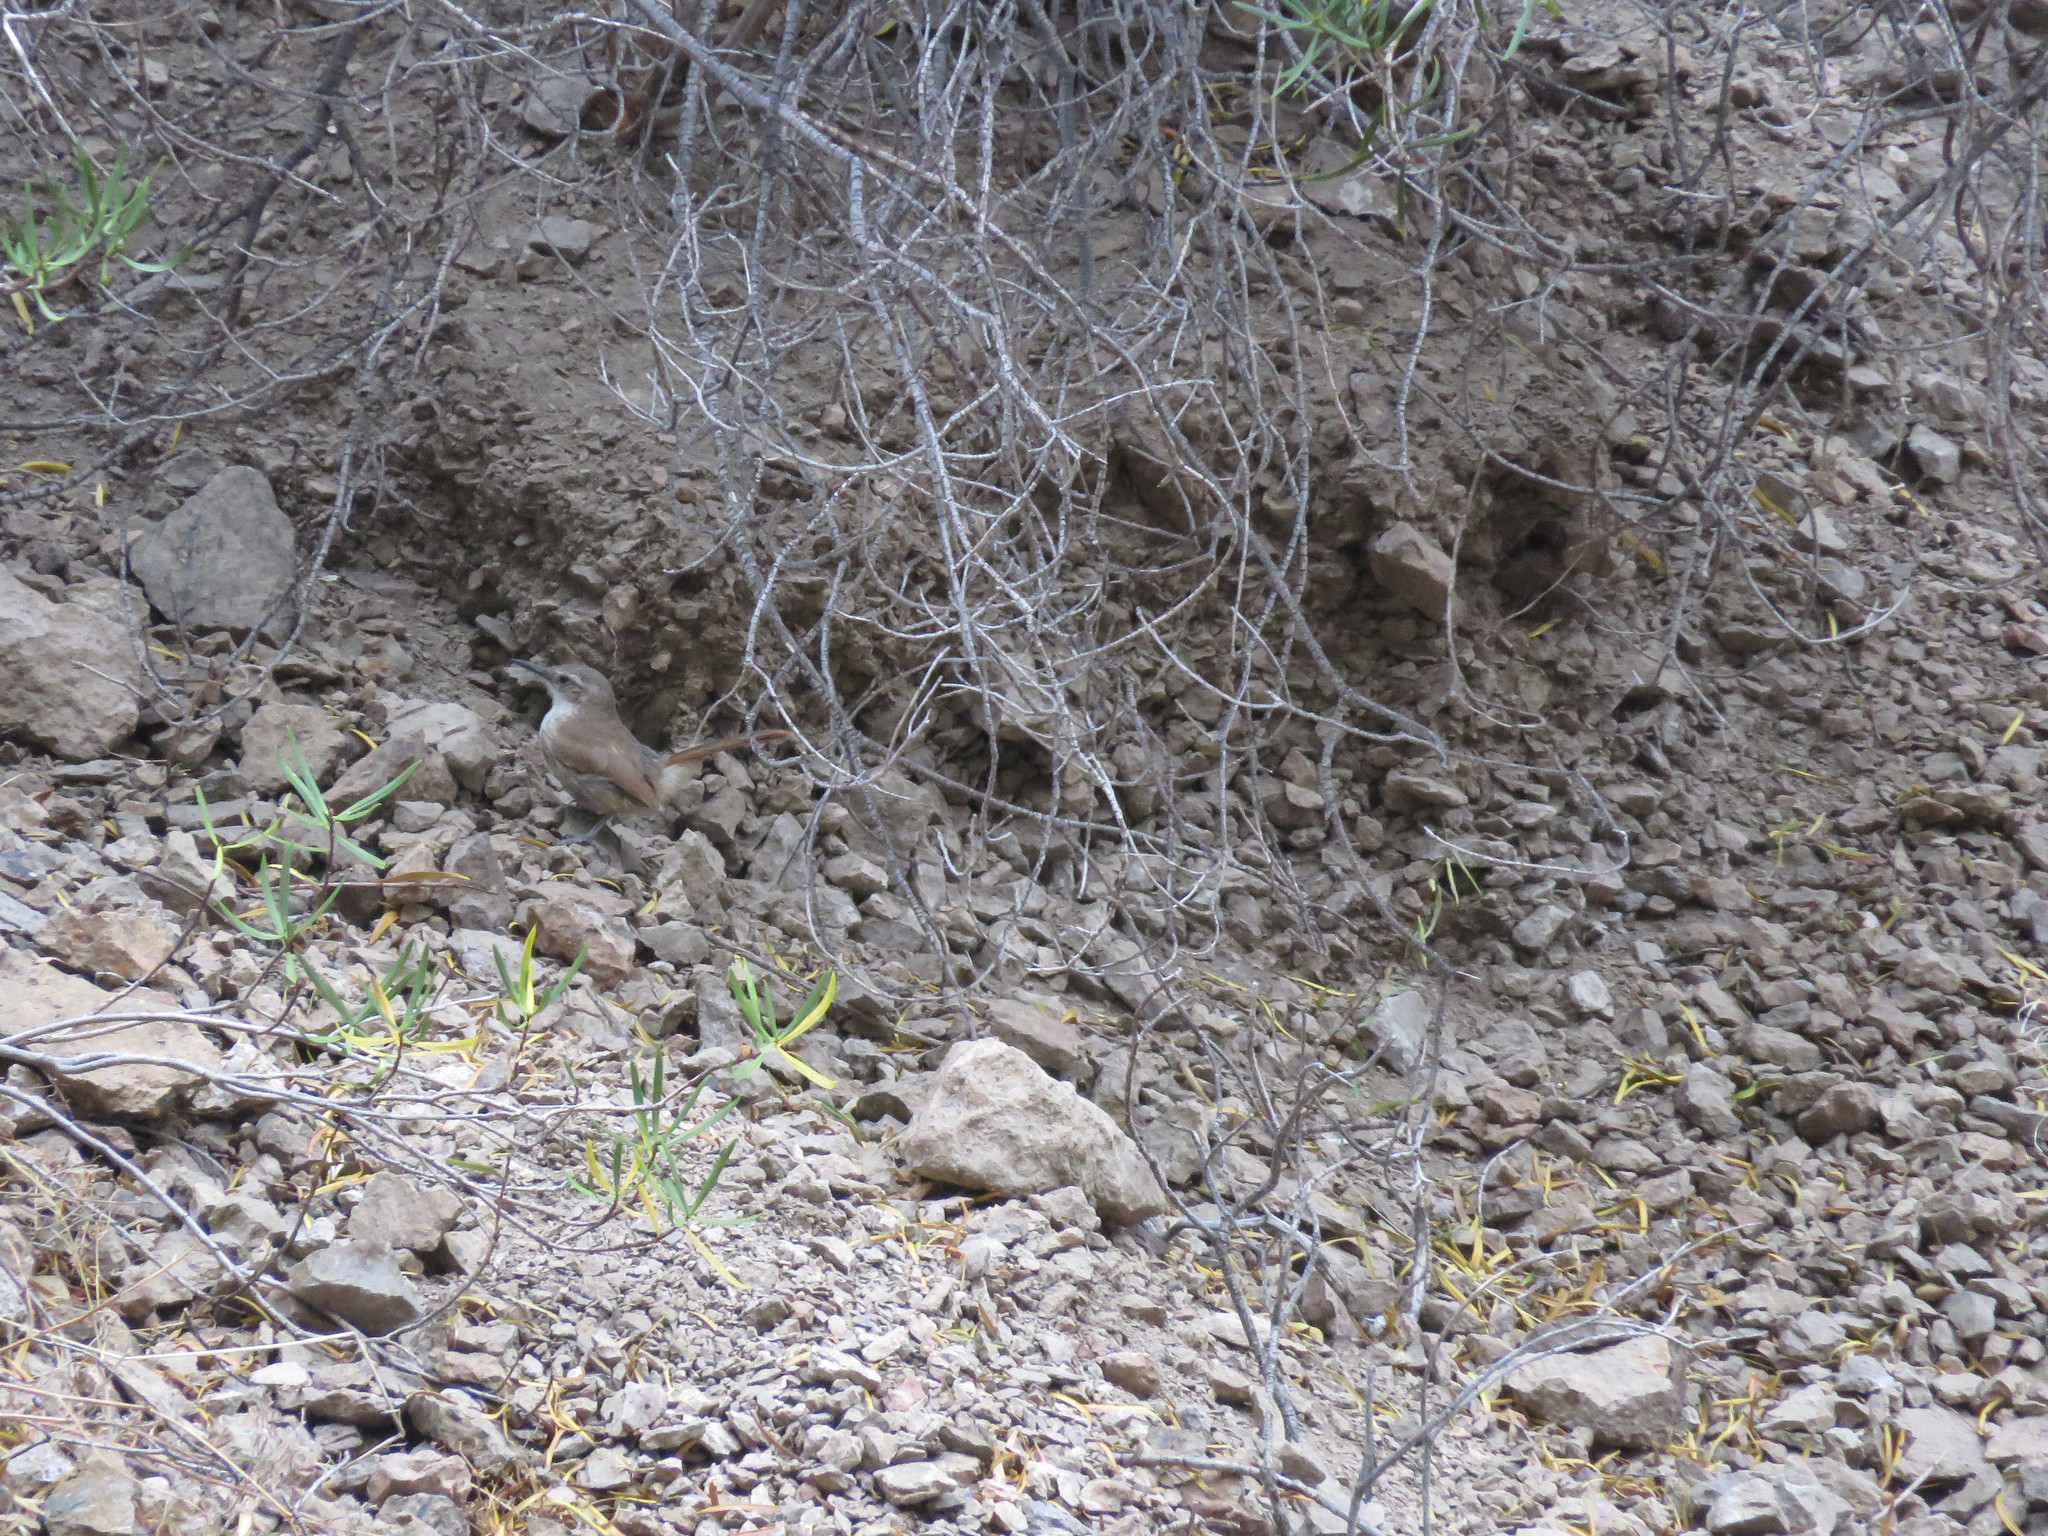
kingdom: Animalia
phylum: Chordata
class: Aves
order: Passeriformes
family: Furnariidae
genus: Upucerthia
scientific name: Upucerthia ruficaudus
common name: Straight-billed earthcreeper
